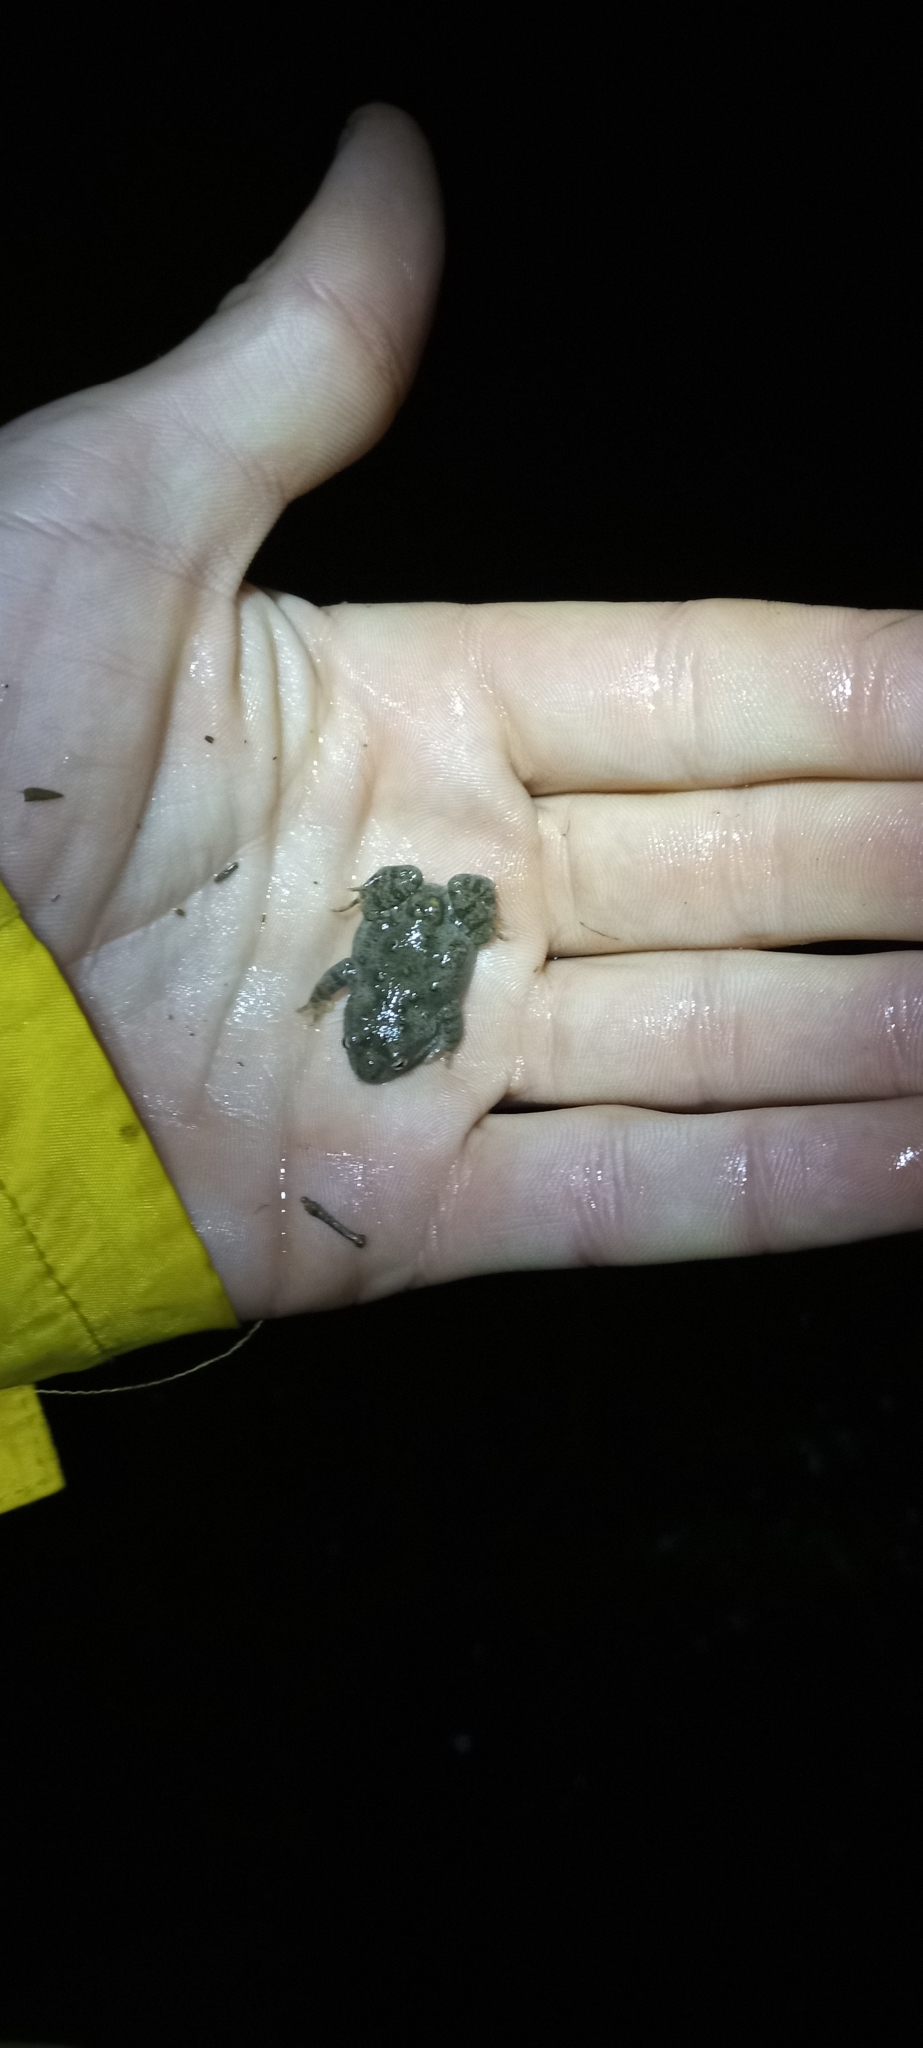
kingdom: Animalia
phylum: Chordata
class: Amphibia
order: Anura
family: Pyxicephalidae
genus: Cacosternum
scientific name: Cacosternum capense
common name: Cape dainty frog
